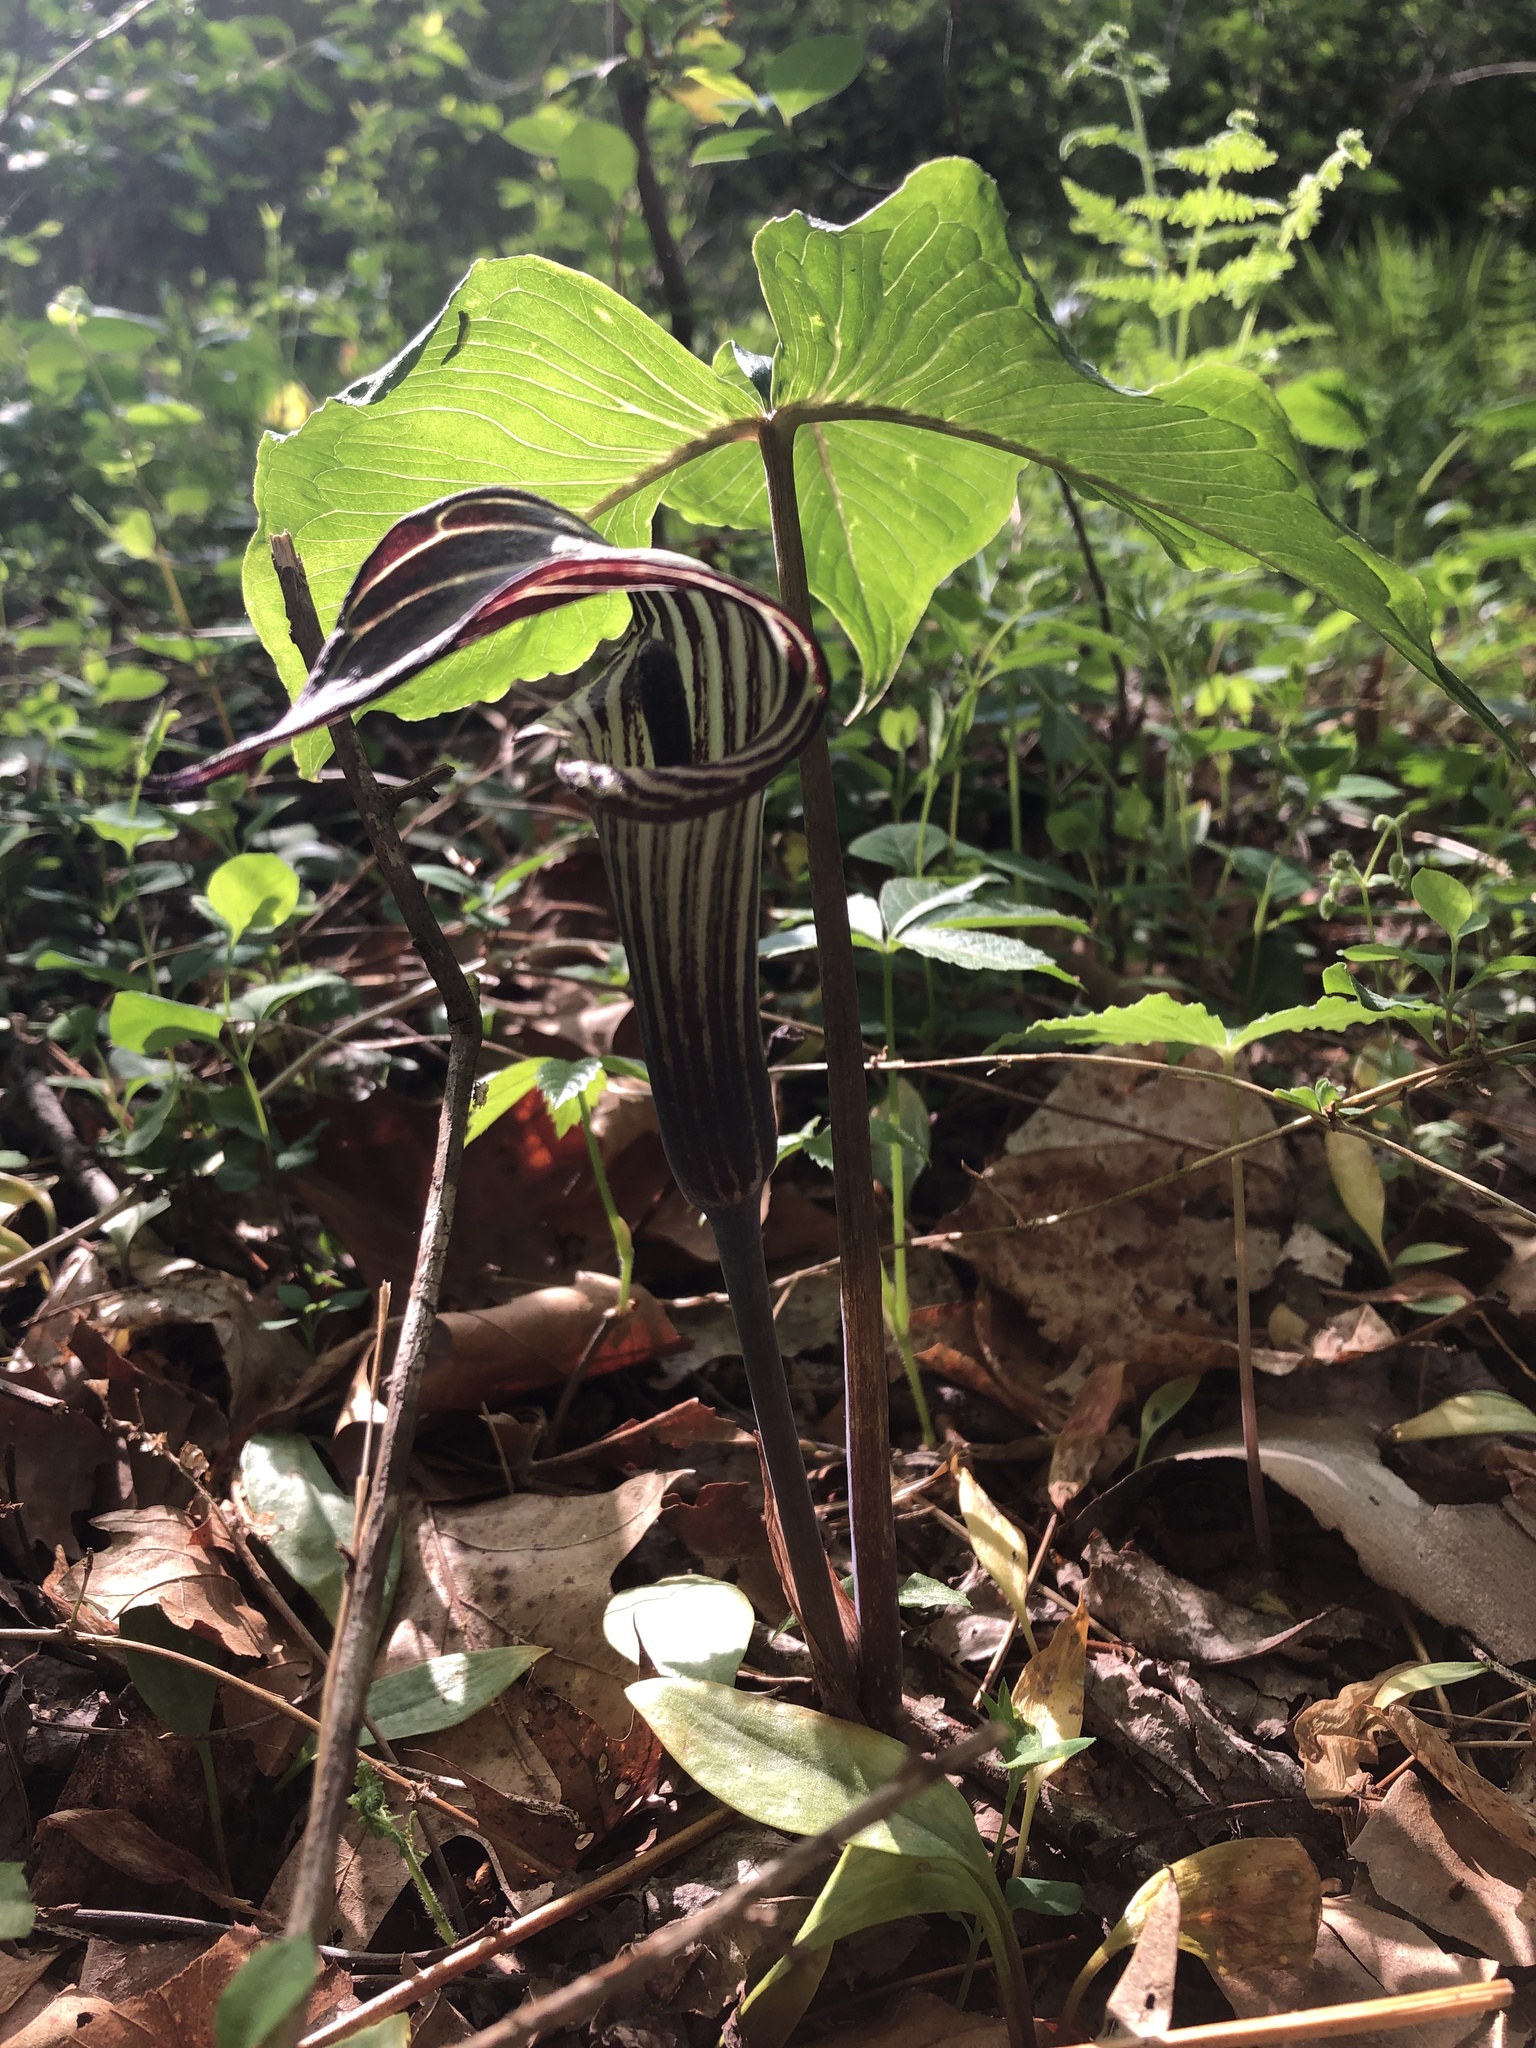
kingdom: Plantae
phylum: Tracheophyta
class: Liliopsida
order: Alismatales
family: Araceae
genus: Arisaema
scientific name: Arisaema triphyllum
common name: Jack-in-the-pulpit
